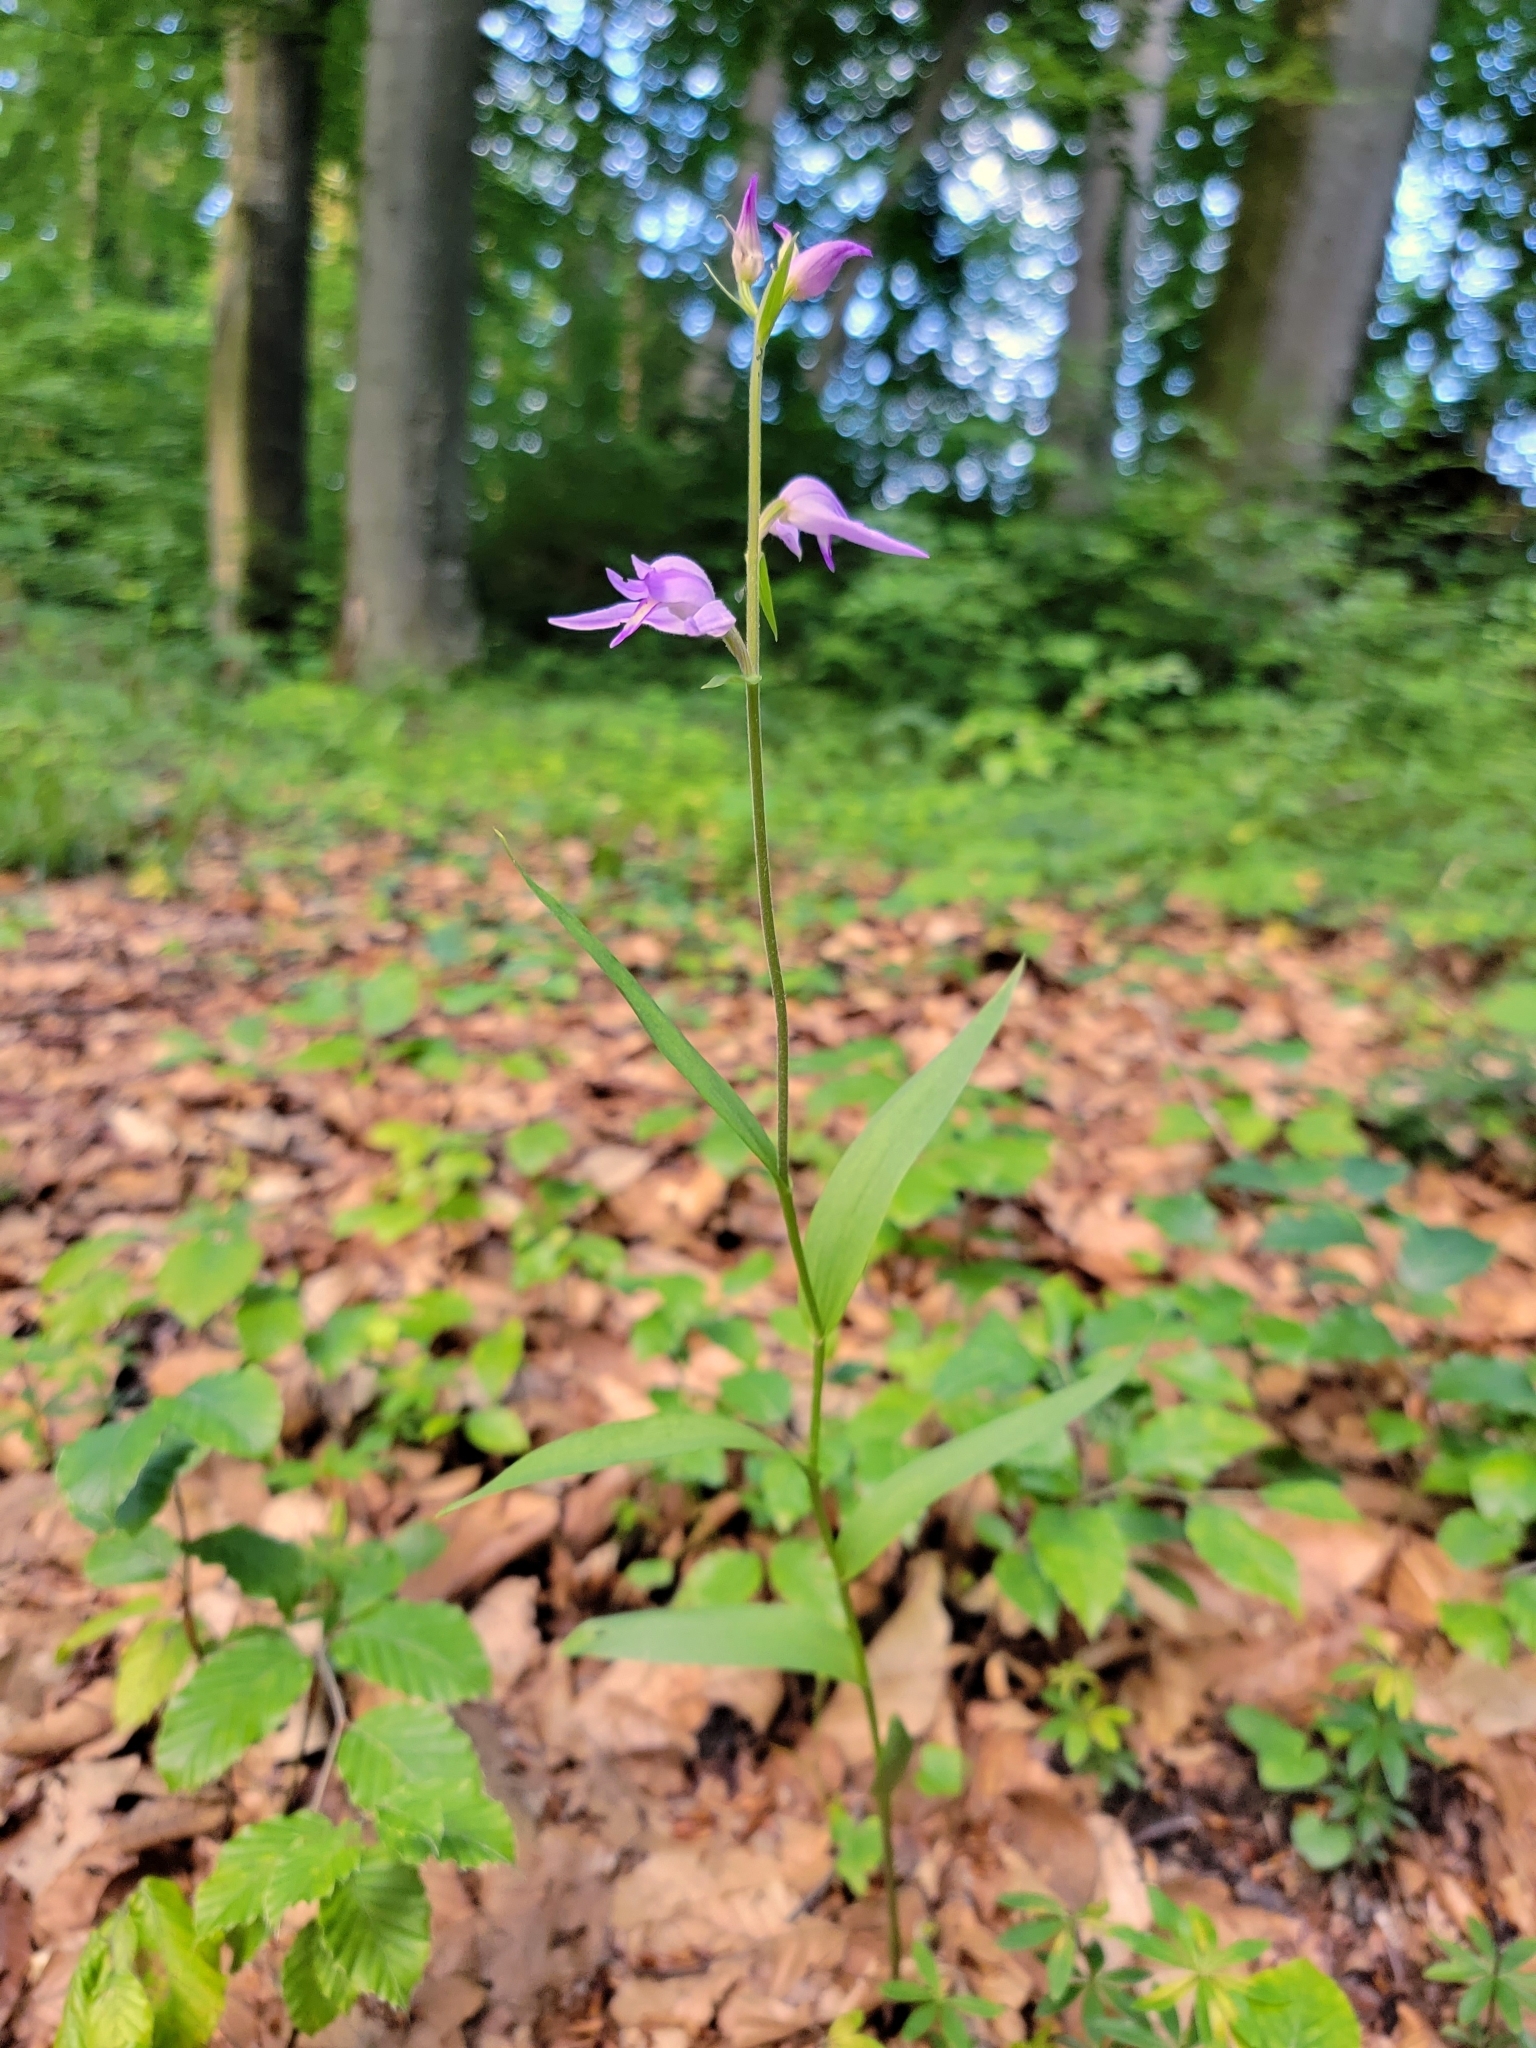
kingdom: Plantae
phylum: Tracheophyta
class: Liliopsida
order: Asparagales
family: Orchidaceae
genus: Cephalanthera
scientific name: Cephalanthera rubra
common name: Red helleborine
